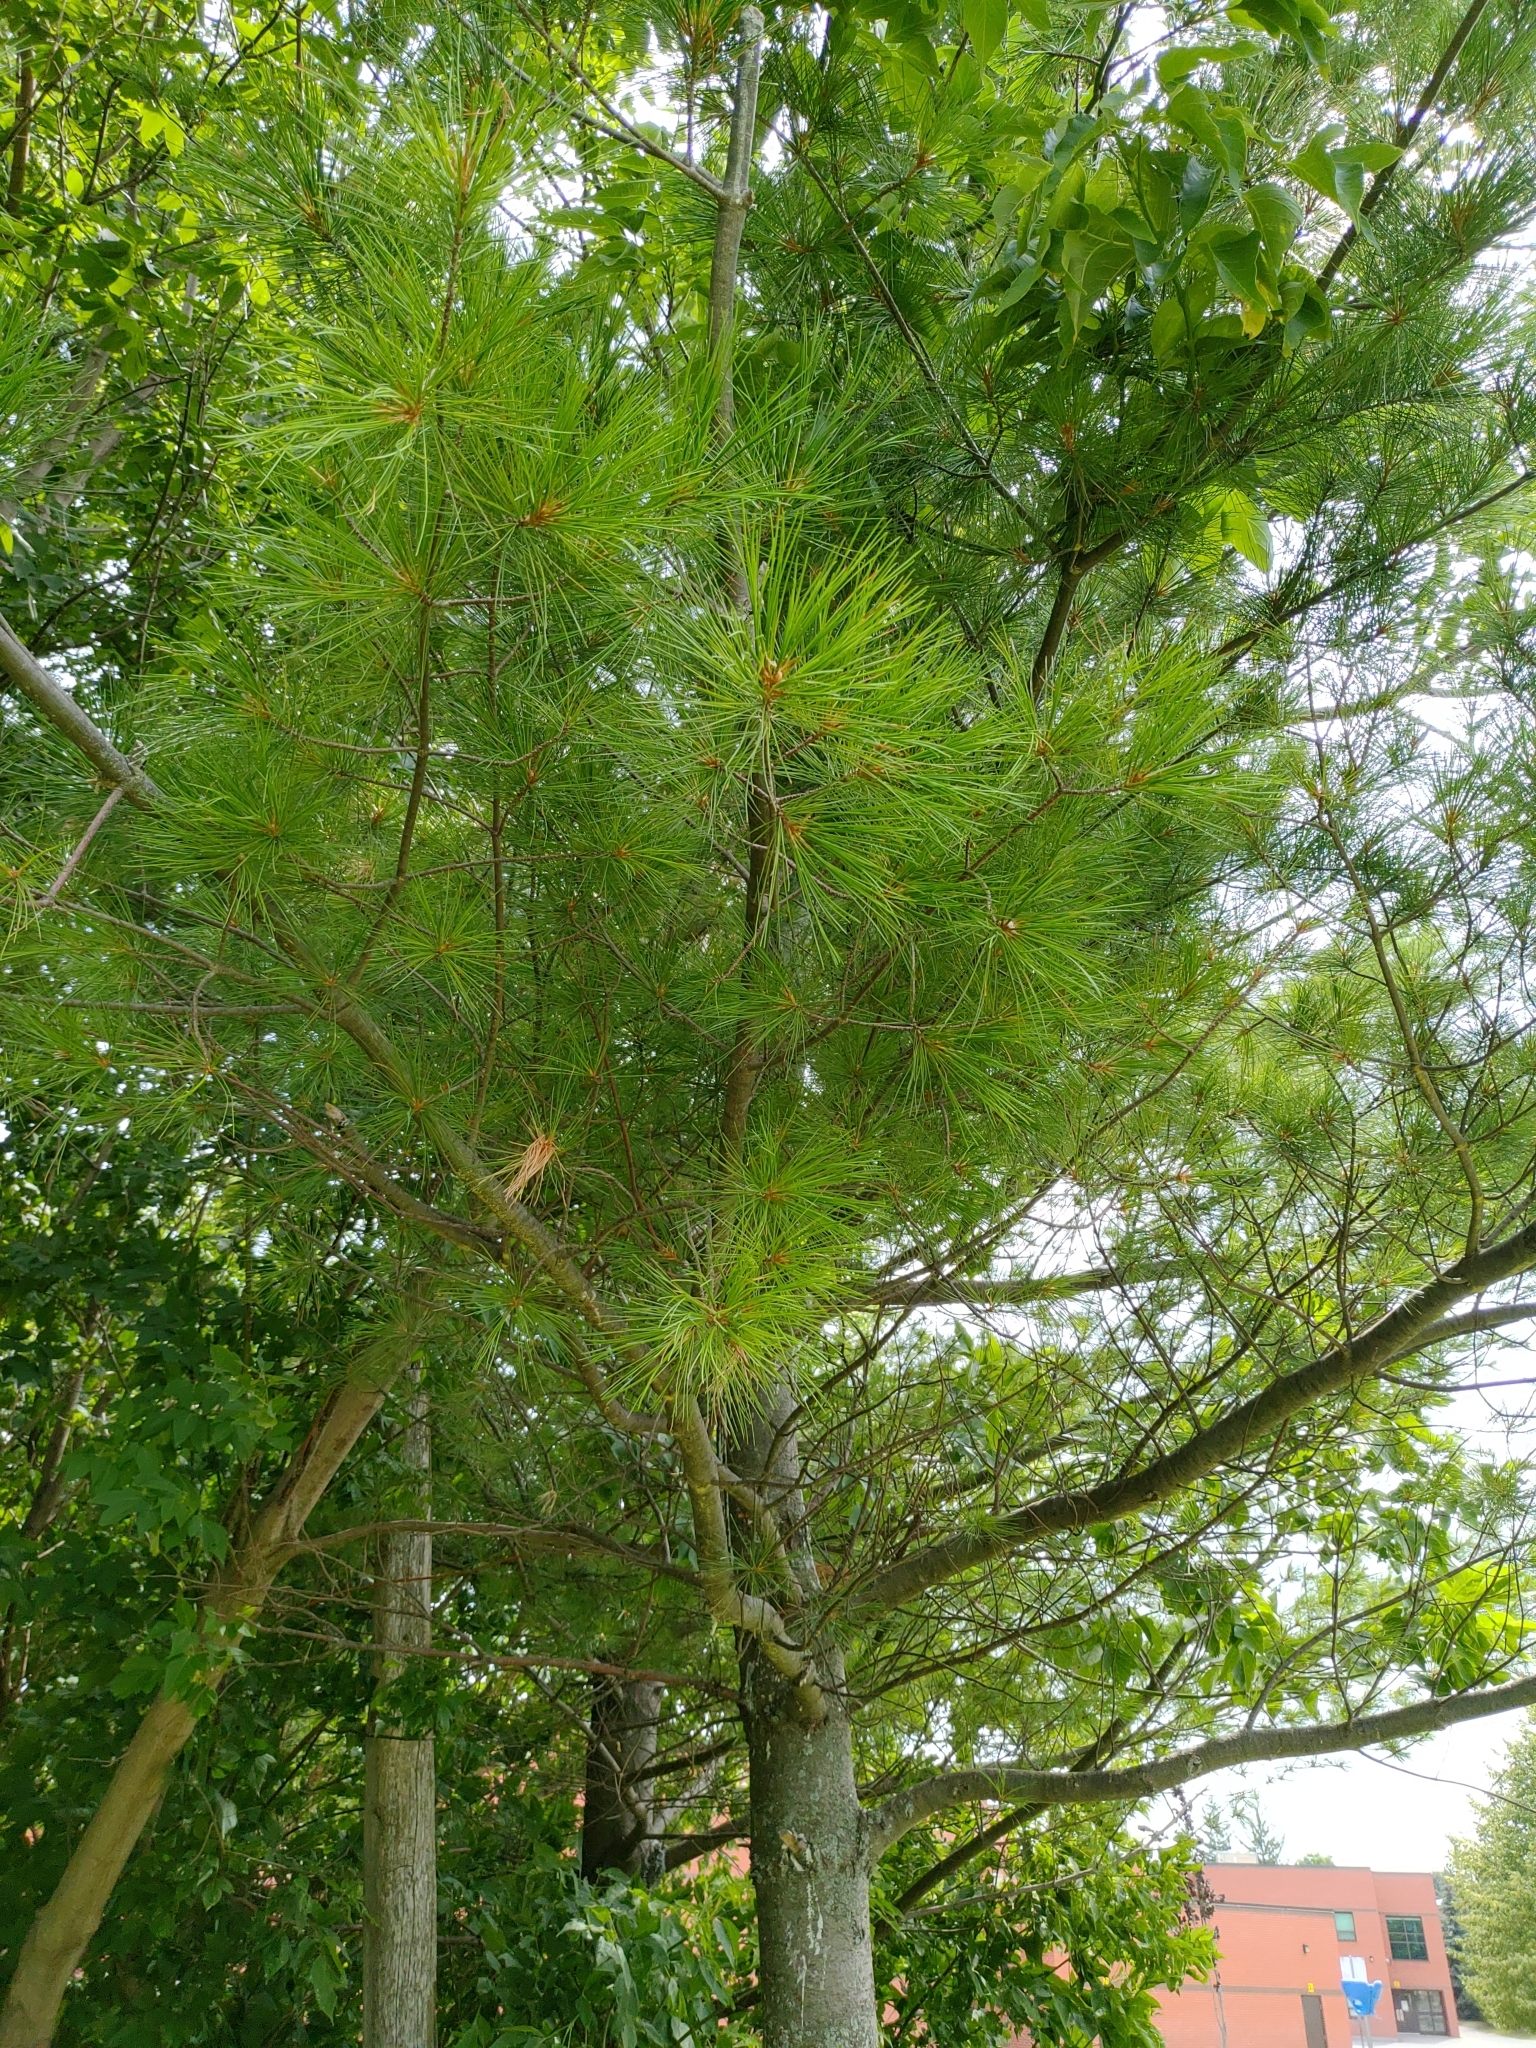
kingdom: Plantae
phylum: Tracheophyta
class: Pinopsida
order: Pinales
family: Pinaceae
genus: Pinus
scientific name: Pinus strobus
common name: Weymouth pine
